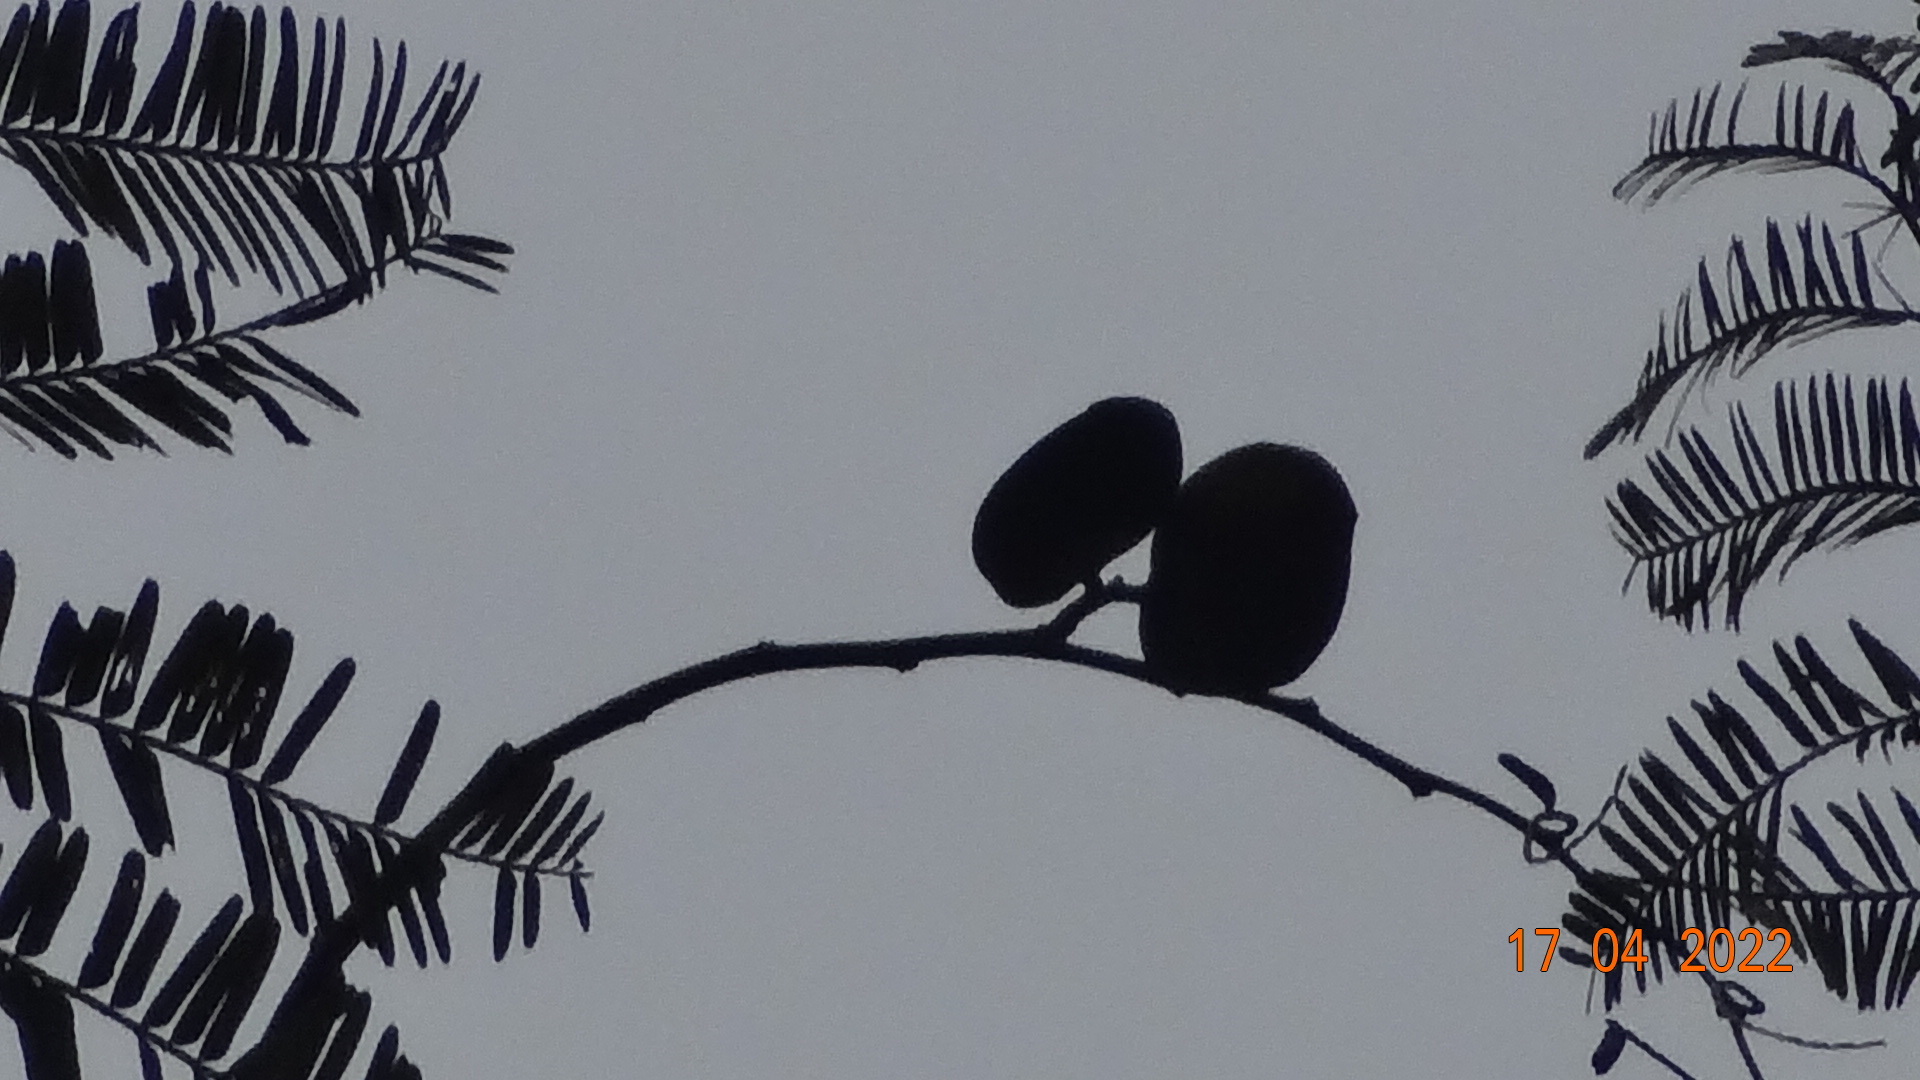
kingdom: Plantae
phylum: Tracheophyta
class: Magnoliopsida
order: Fabales
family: Fabaceae
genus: Macrolobium
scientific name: Macrolobium acaciifolium
